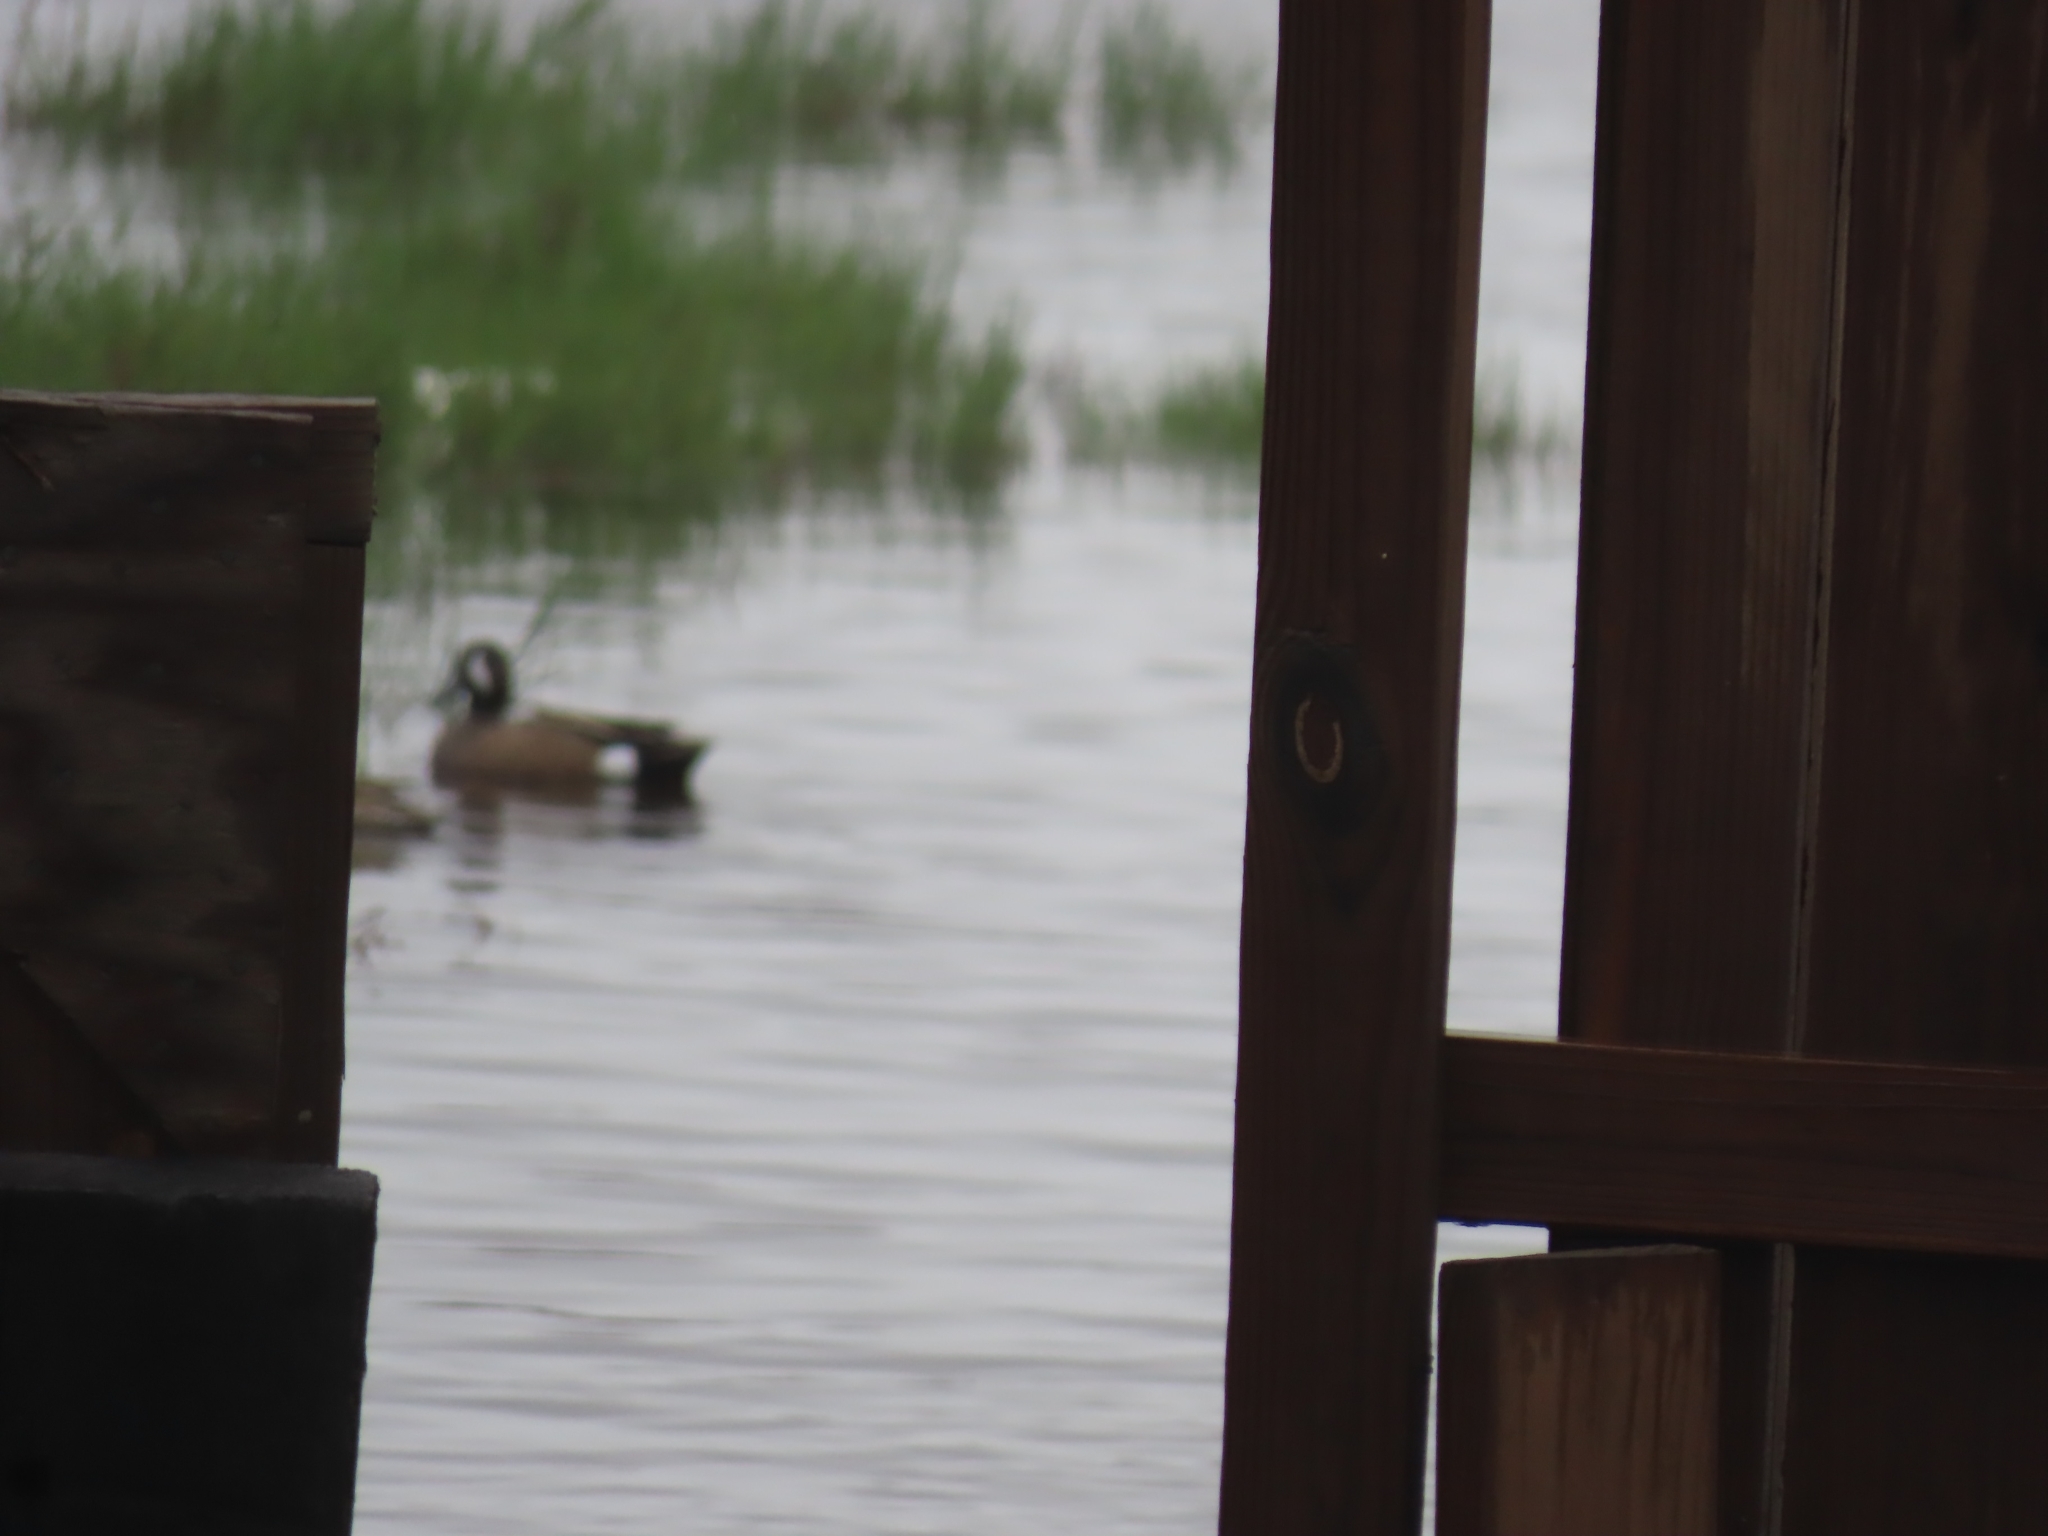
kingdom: Animalia
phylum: Chordata
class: Aves
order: Anseriformes
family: Anatidae
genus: Spatula
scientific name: Spatula discors
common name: Blue-winged teal
